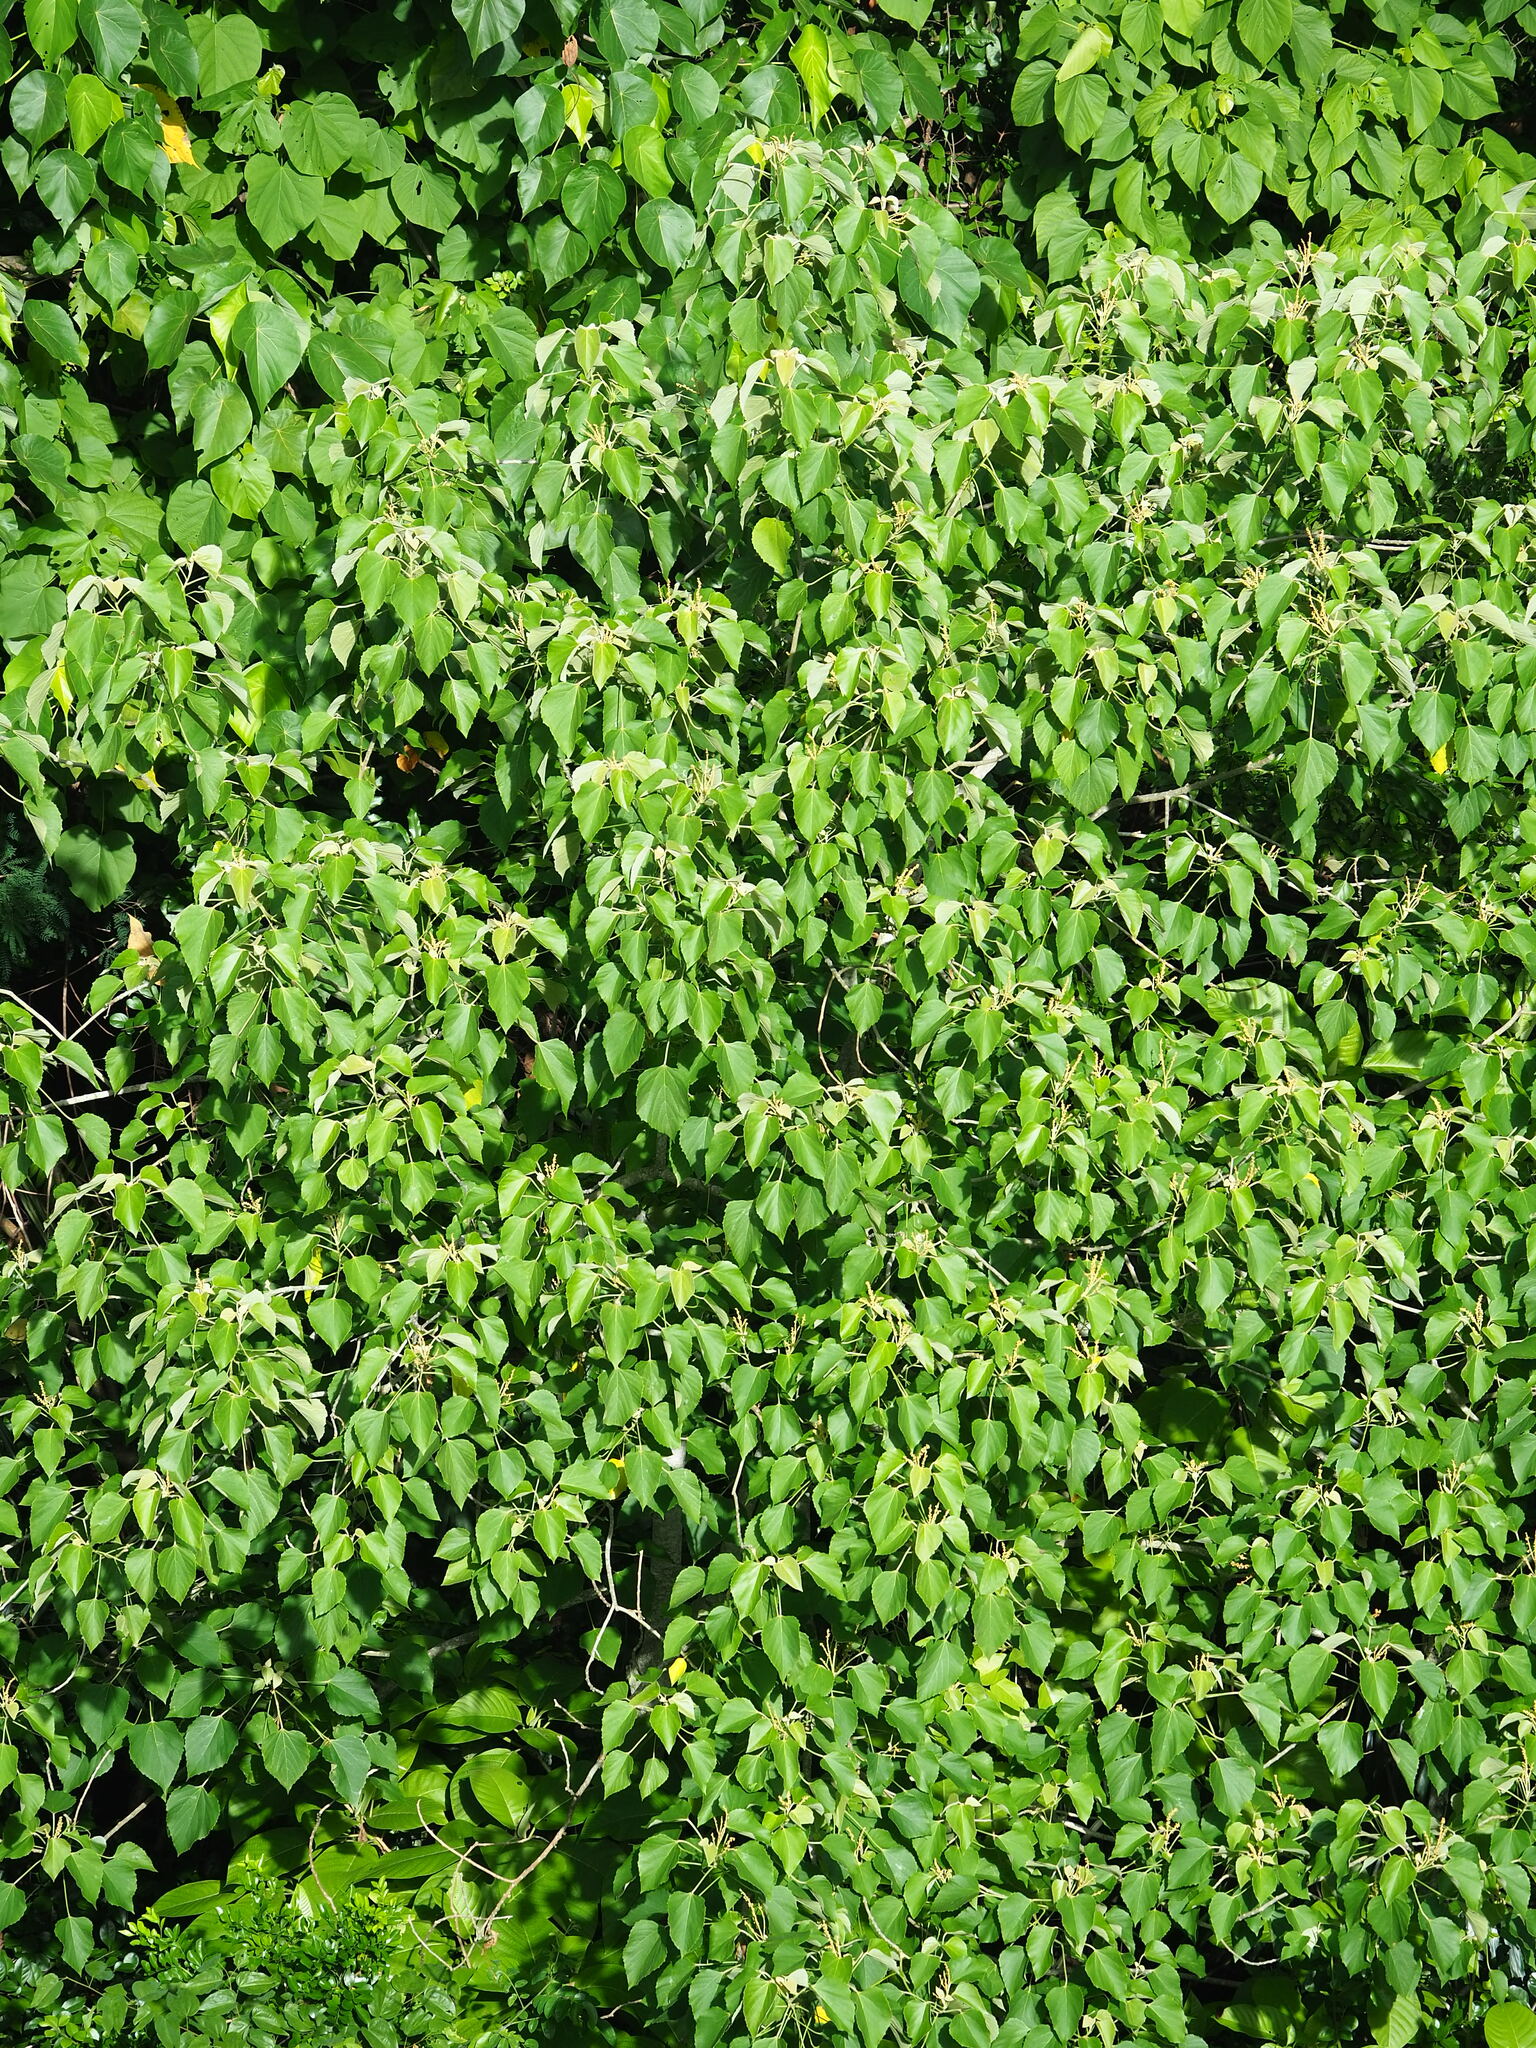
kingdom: Plantae
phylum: Tracheophyta
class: Magnoliopsida
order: Malpighiales
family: Euphorbiaceae
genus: Melanolepis
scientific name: Melanolepis multiglandulosa
